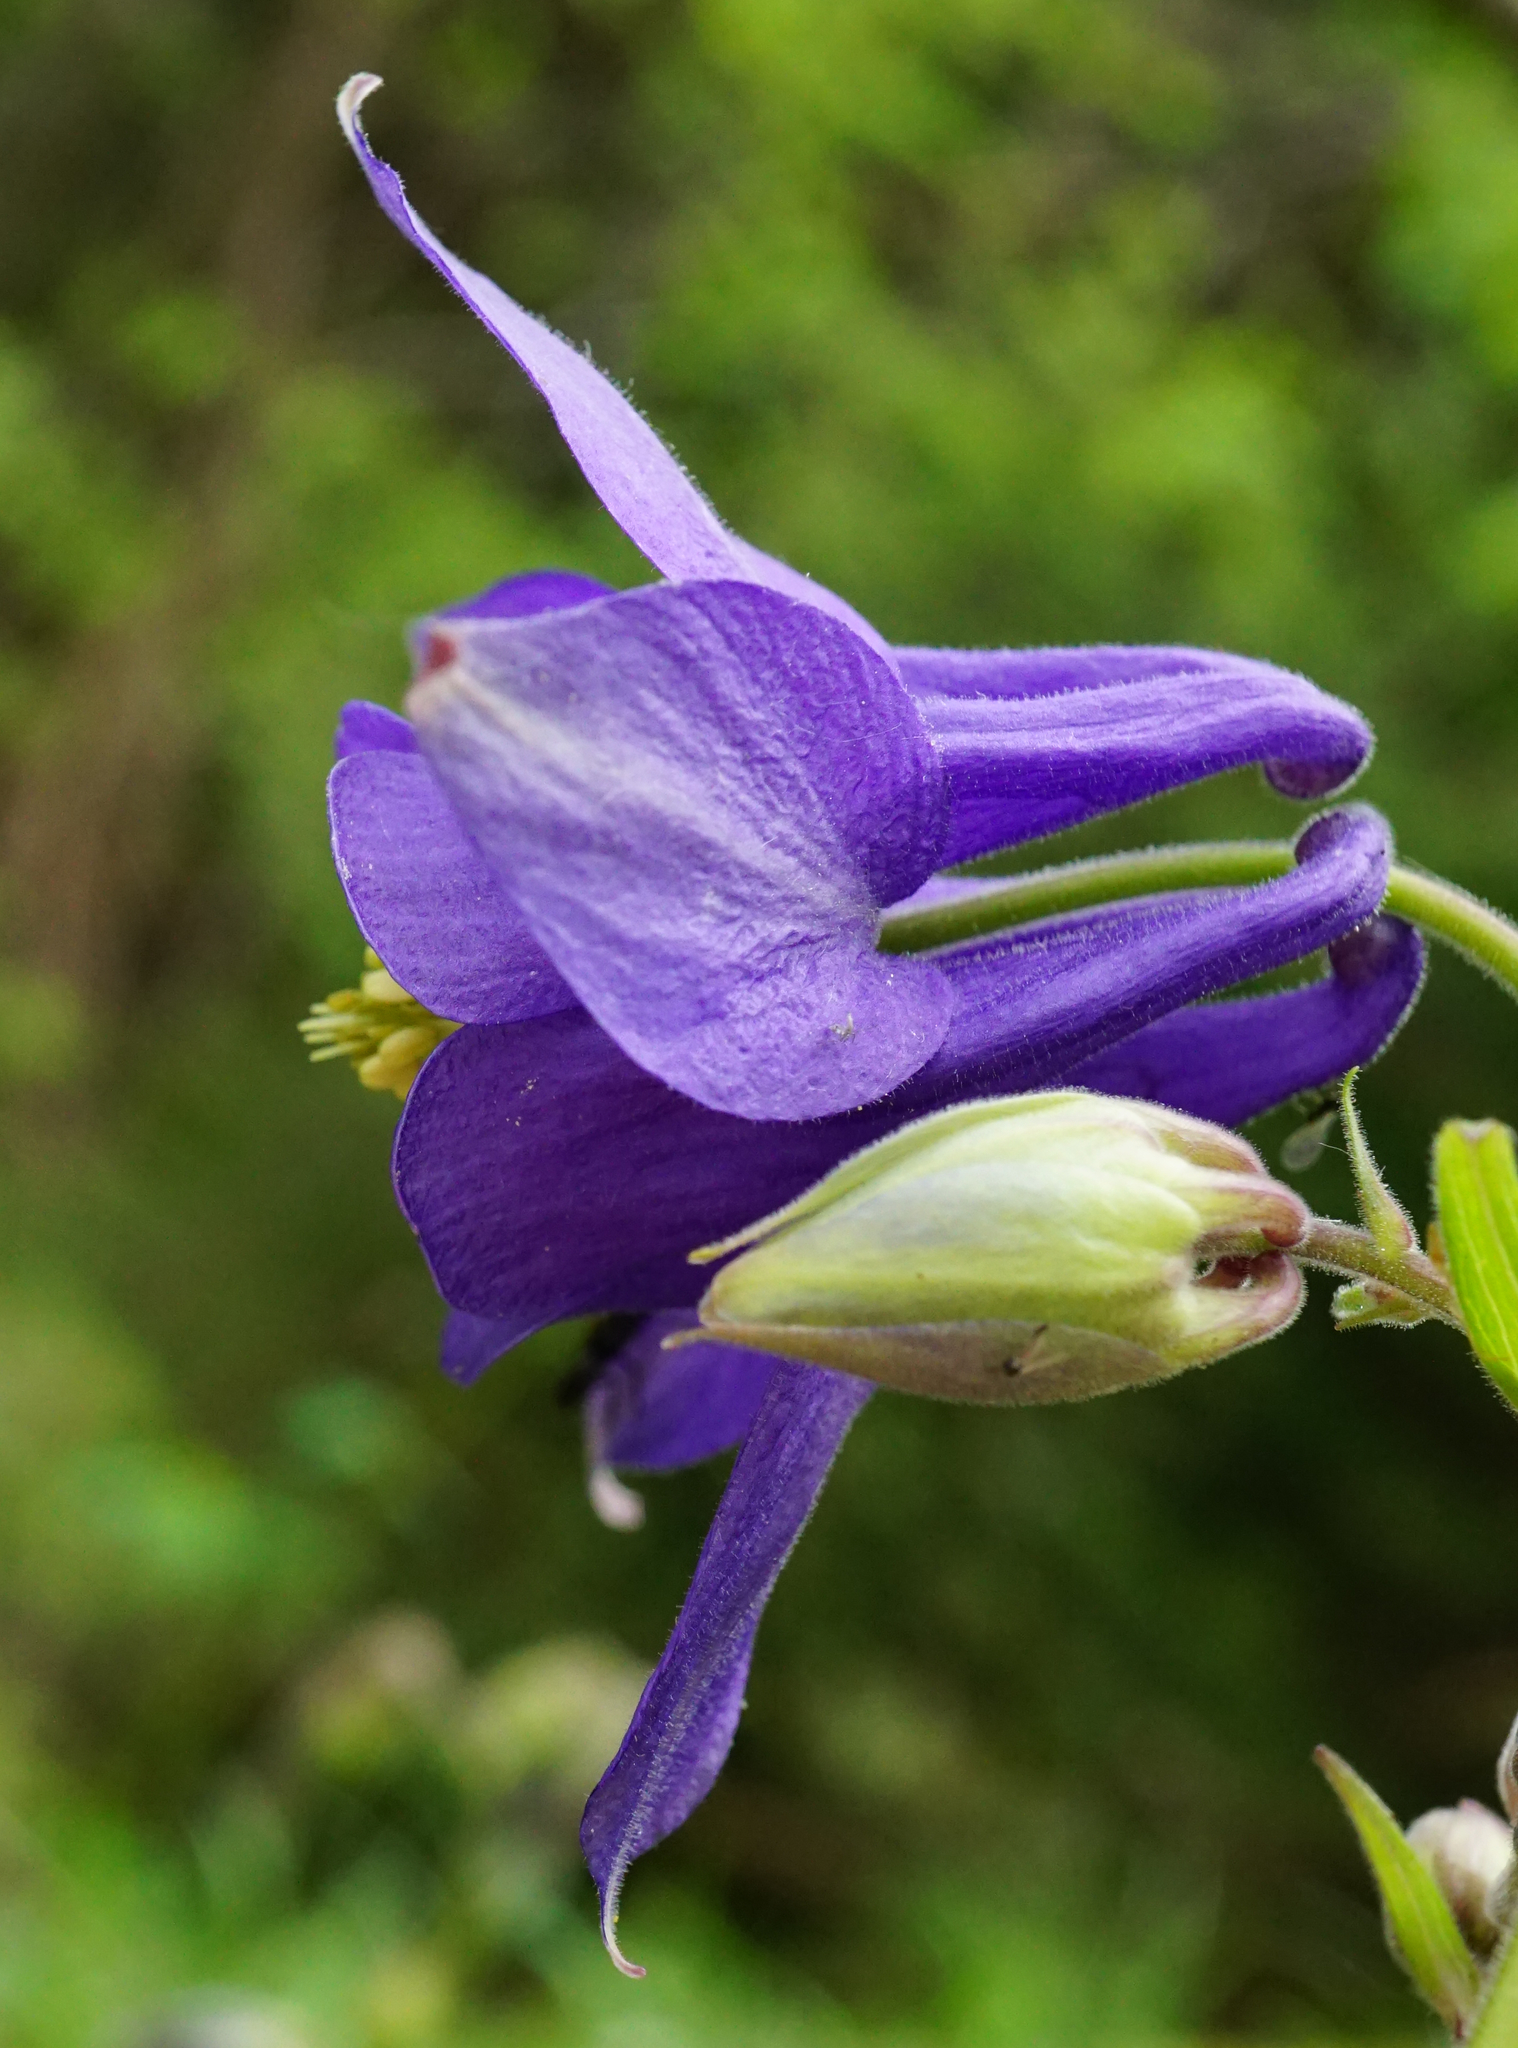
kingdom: Plantae
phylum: Tracheophyta
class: Magnoliopsida
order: Ranunculales
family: Ranunculaceae
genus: Aquilegia
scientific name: Aquilegia nigricans
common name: Bulgarian columbine
